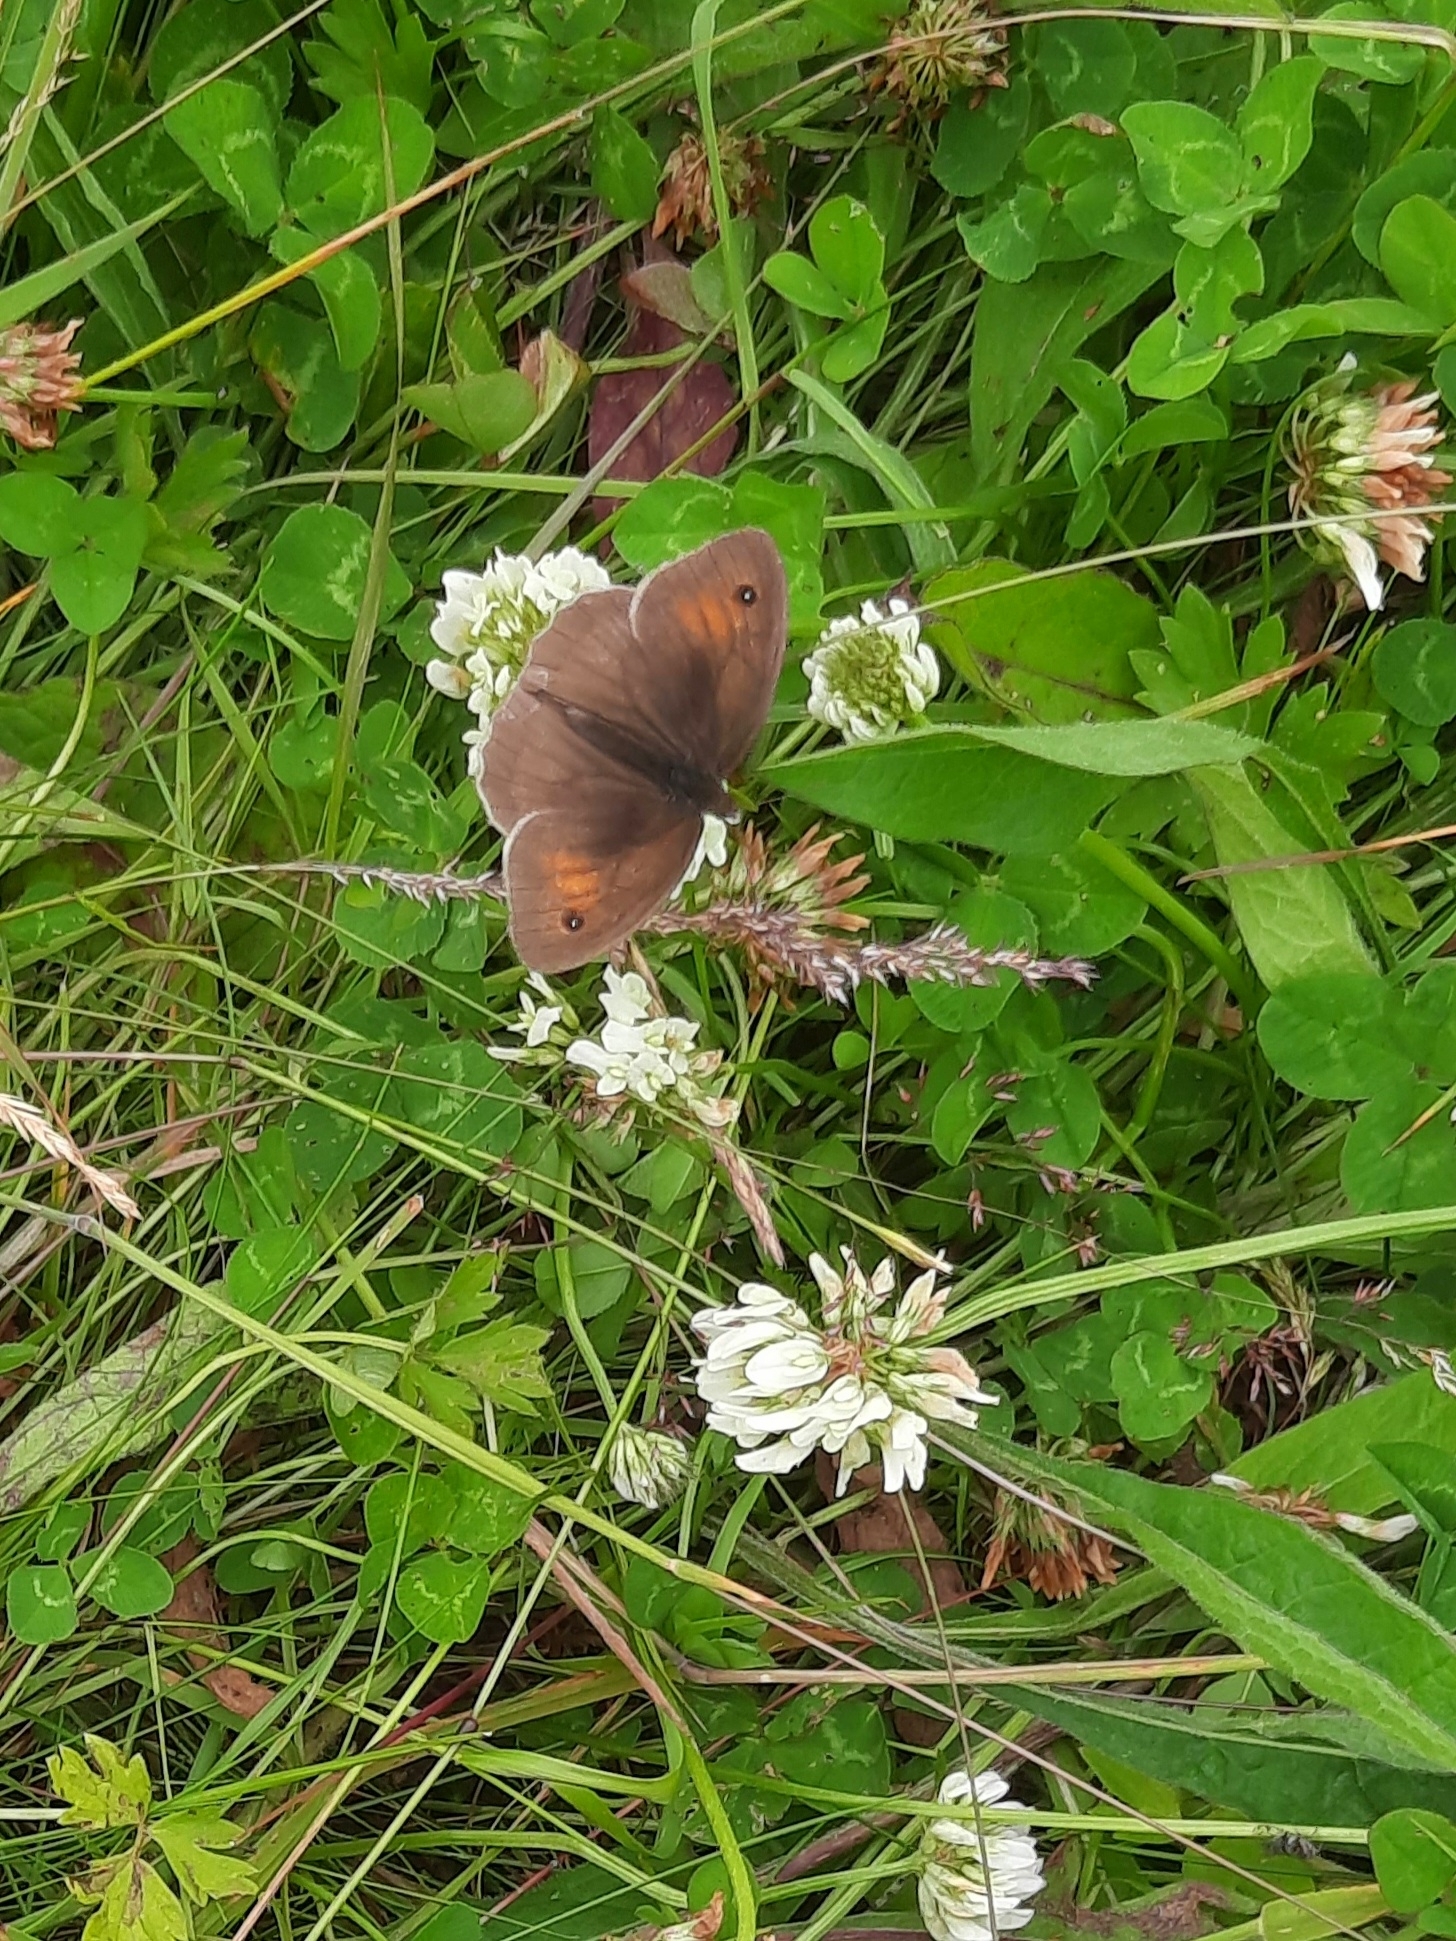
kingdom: Animalia
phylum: Arthropoda
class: Insecta
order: Lepidoptera
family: Nymphalidae
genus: Maniola
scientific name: Maniola jurtina
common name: Meadow brown
